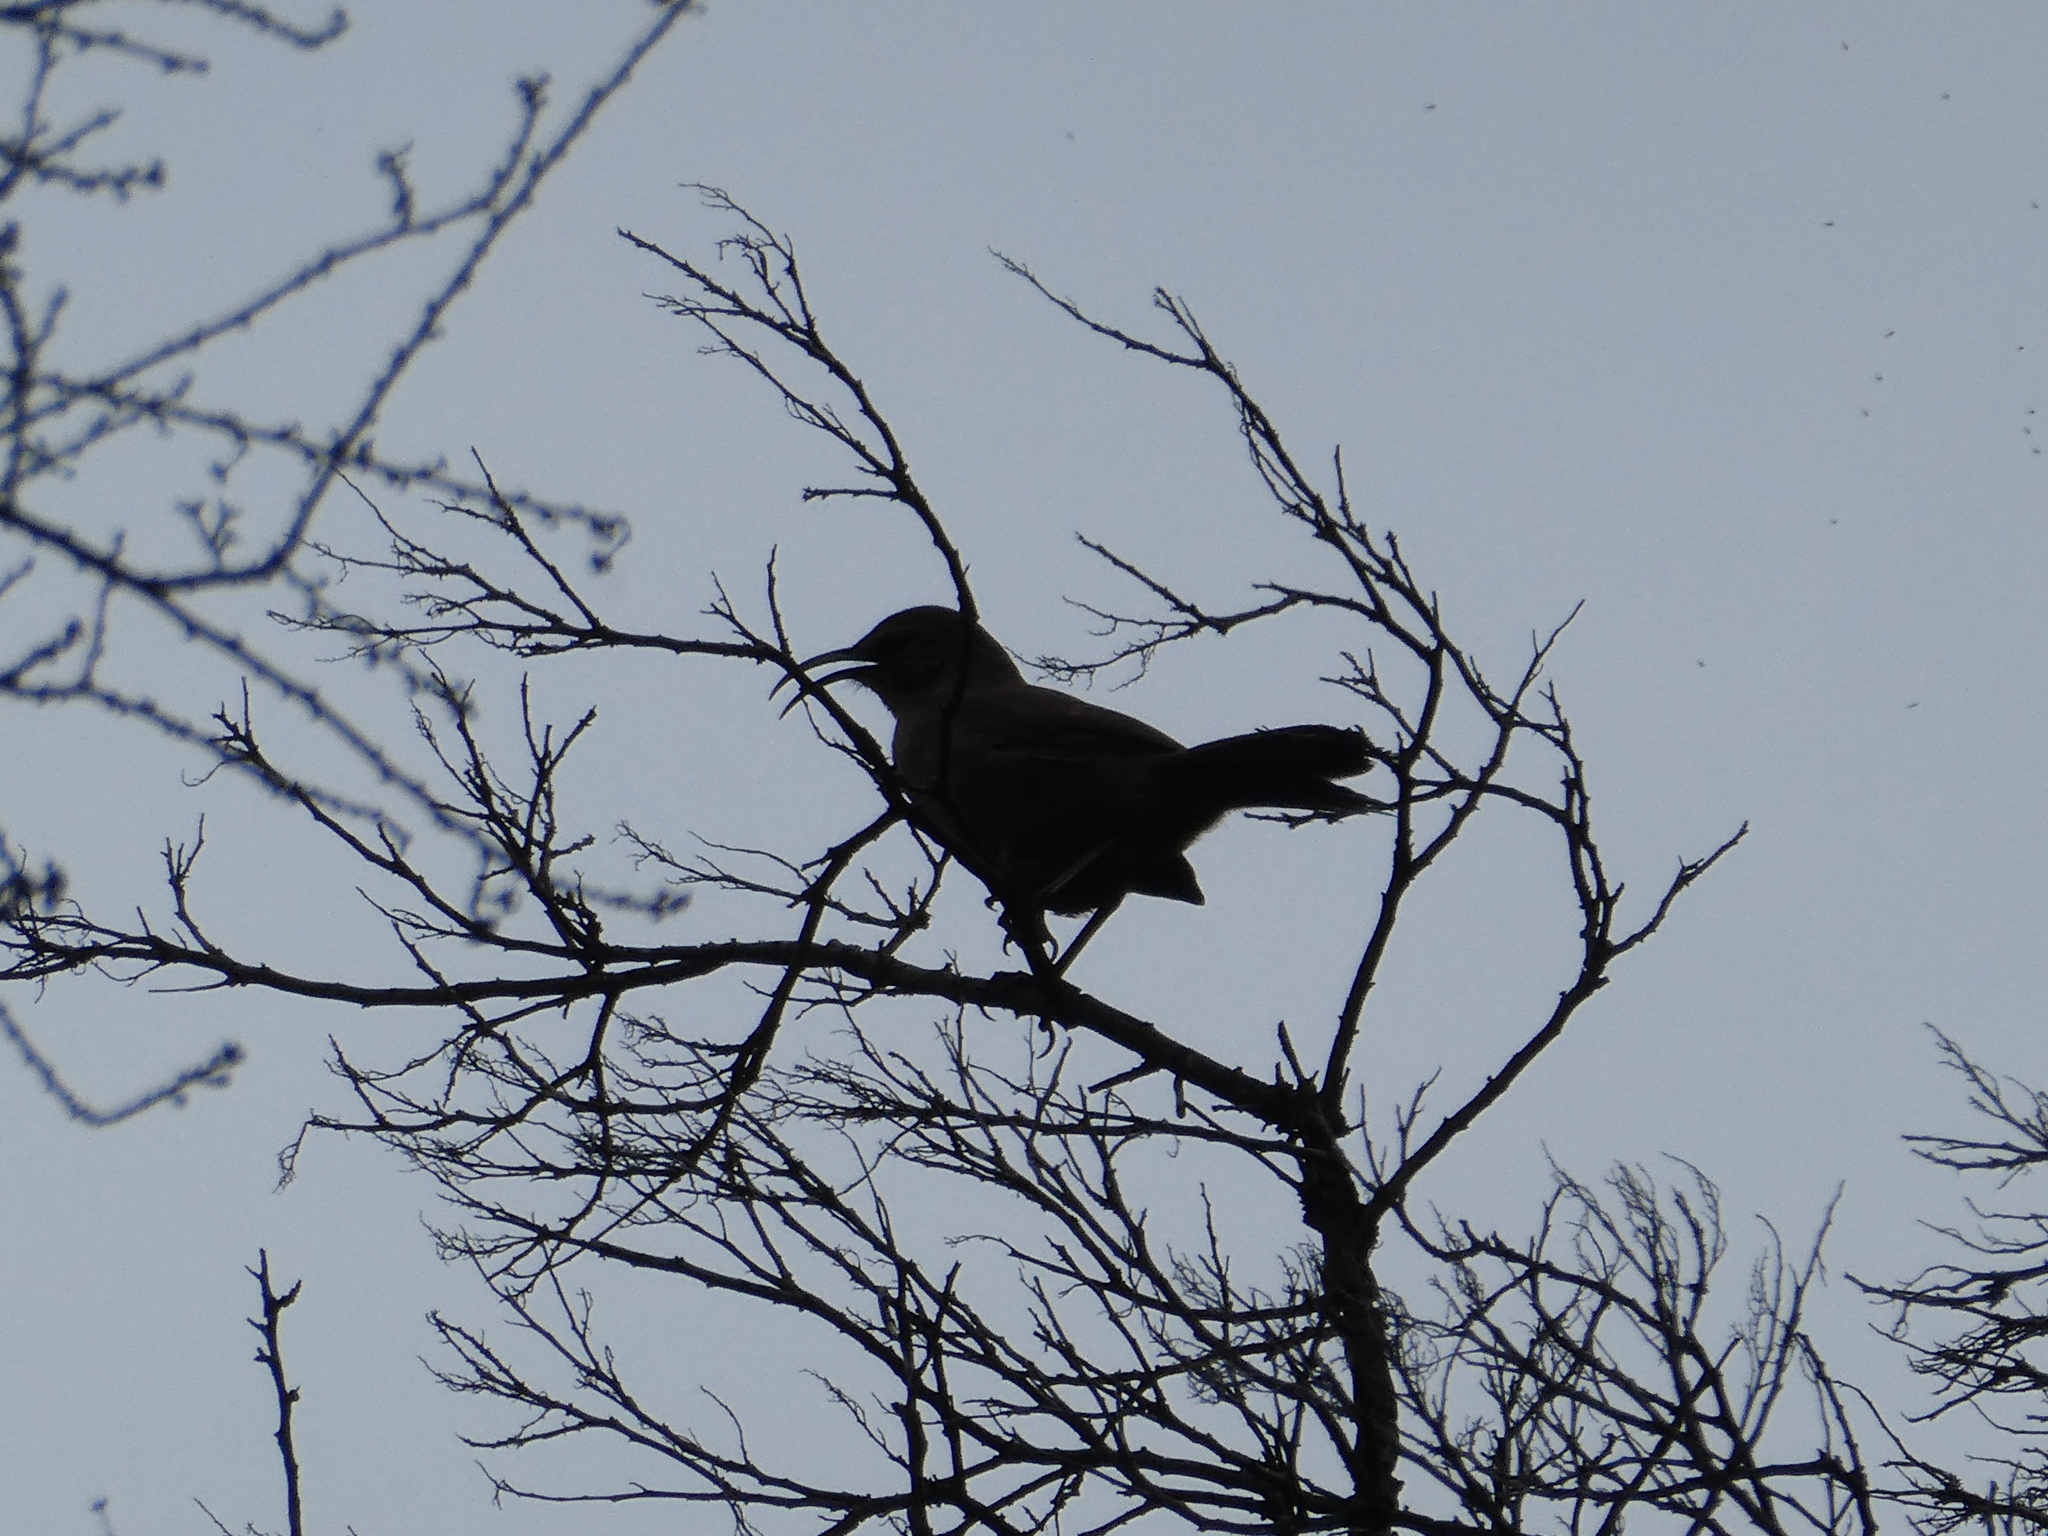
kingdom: Animalia
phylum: Chordata
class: Aves
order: Passeriformes
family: Mimidae
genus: Toxostoma
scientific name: Toxostoma redivivum
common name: California thrasher
